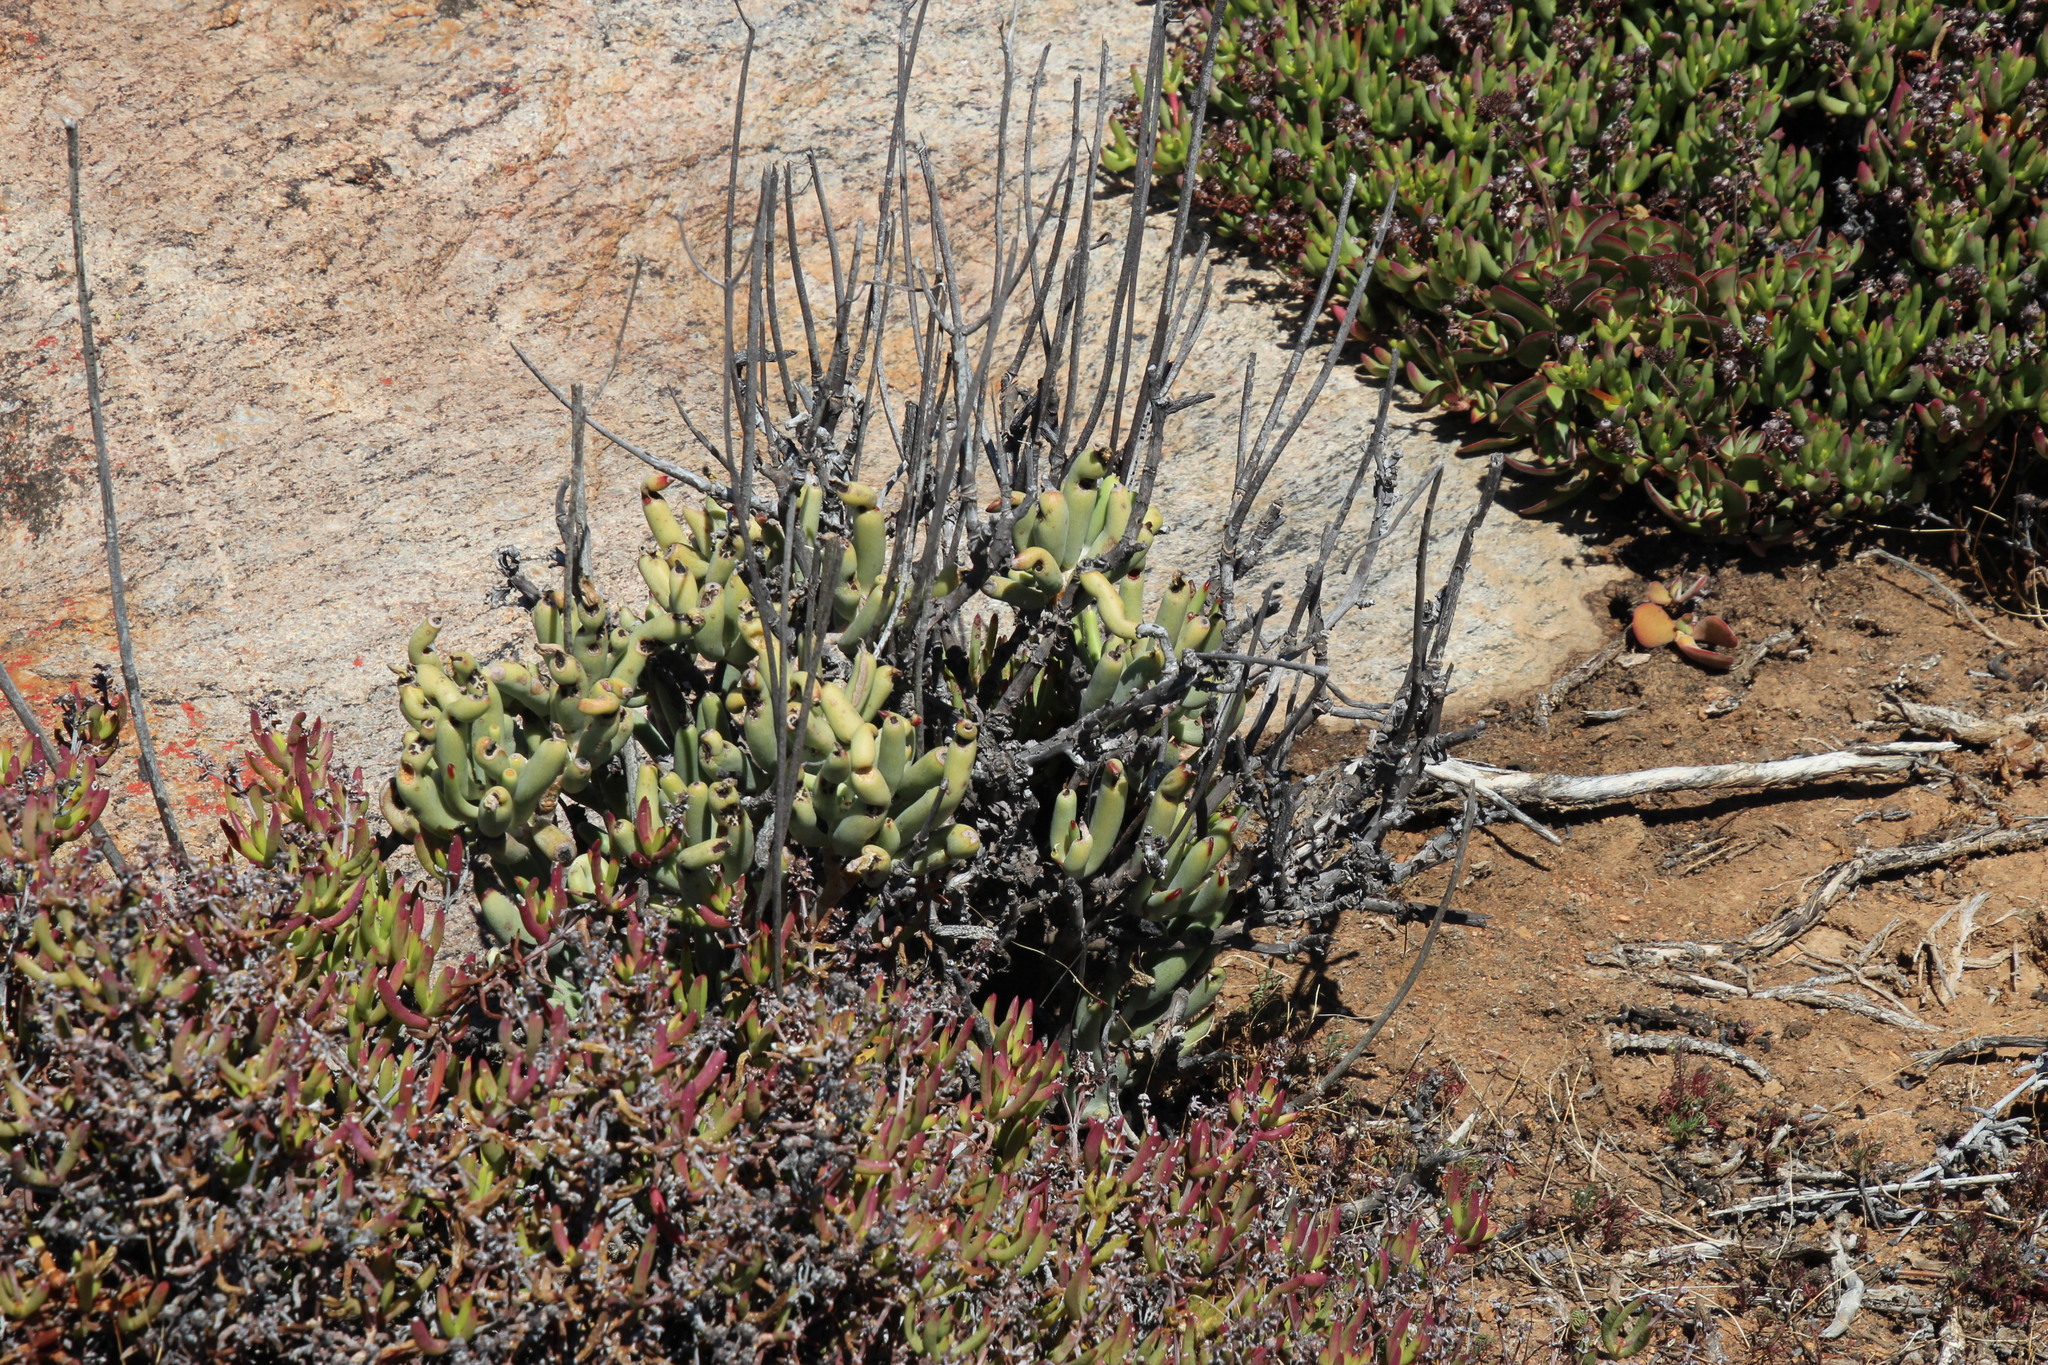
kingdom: Plantae
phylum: Tracheophyta
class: Magnoliopsida
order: Saxifragales
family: Crassulaceae
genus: Cotyledon
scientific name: Cotyledon orbiculata
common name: Pig's ear
